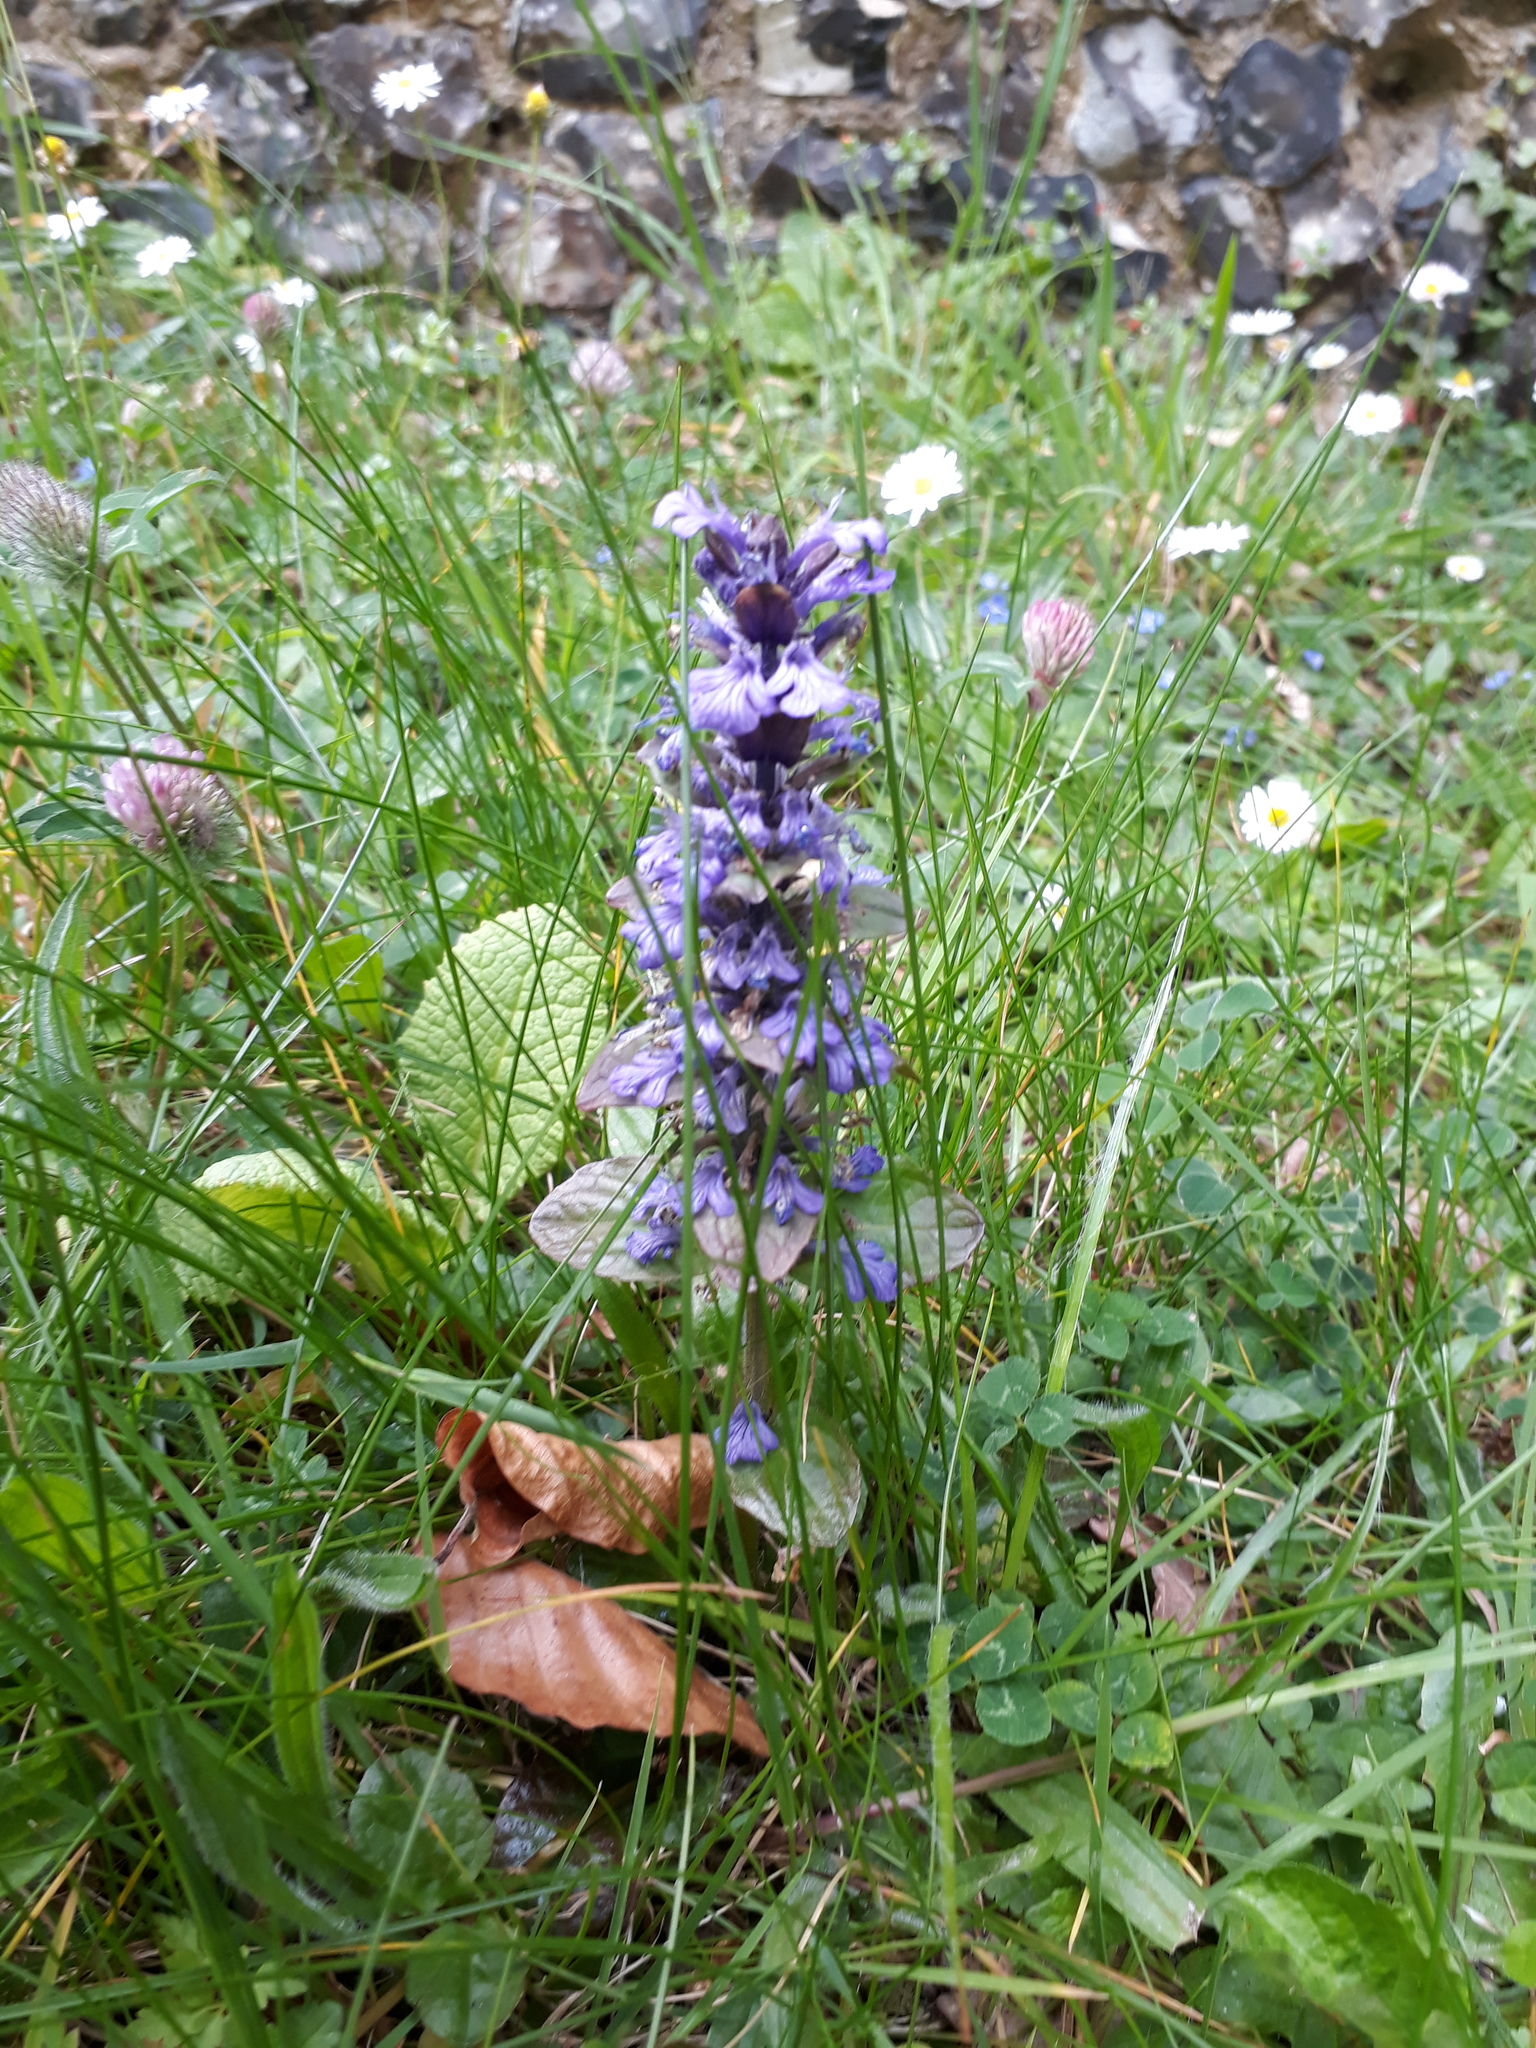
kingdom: Plantae
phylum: Tracheophyta
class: Magnoliopsida
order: Lamiales
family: Lamiaceae
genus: Ajuga
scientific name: Ajuga reptans
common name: Bugle
